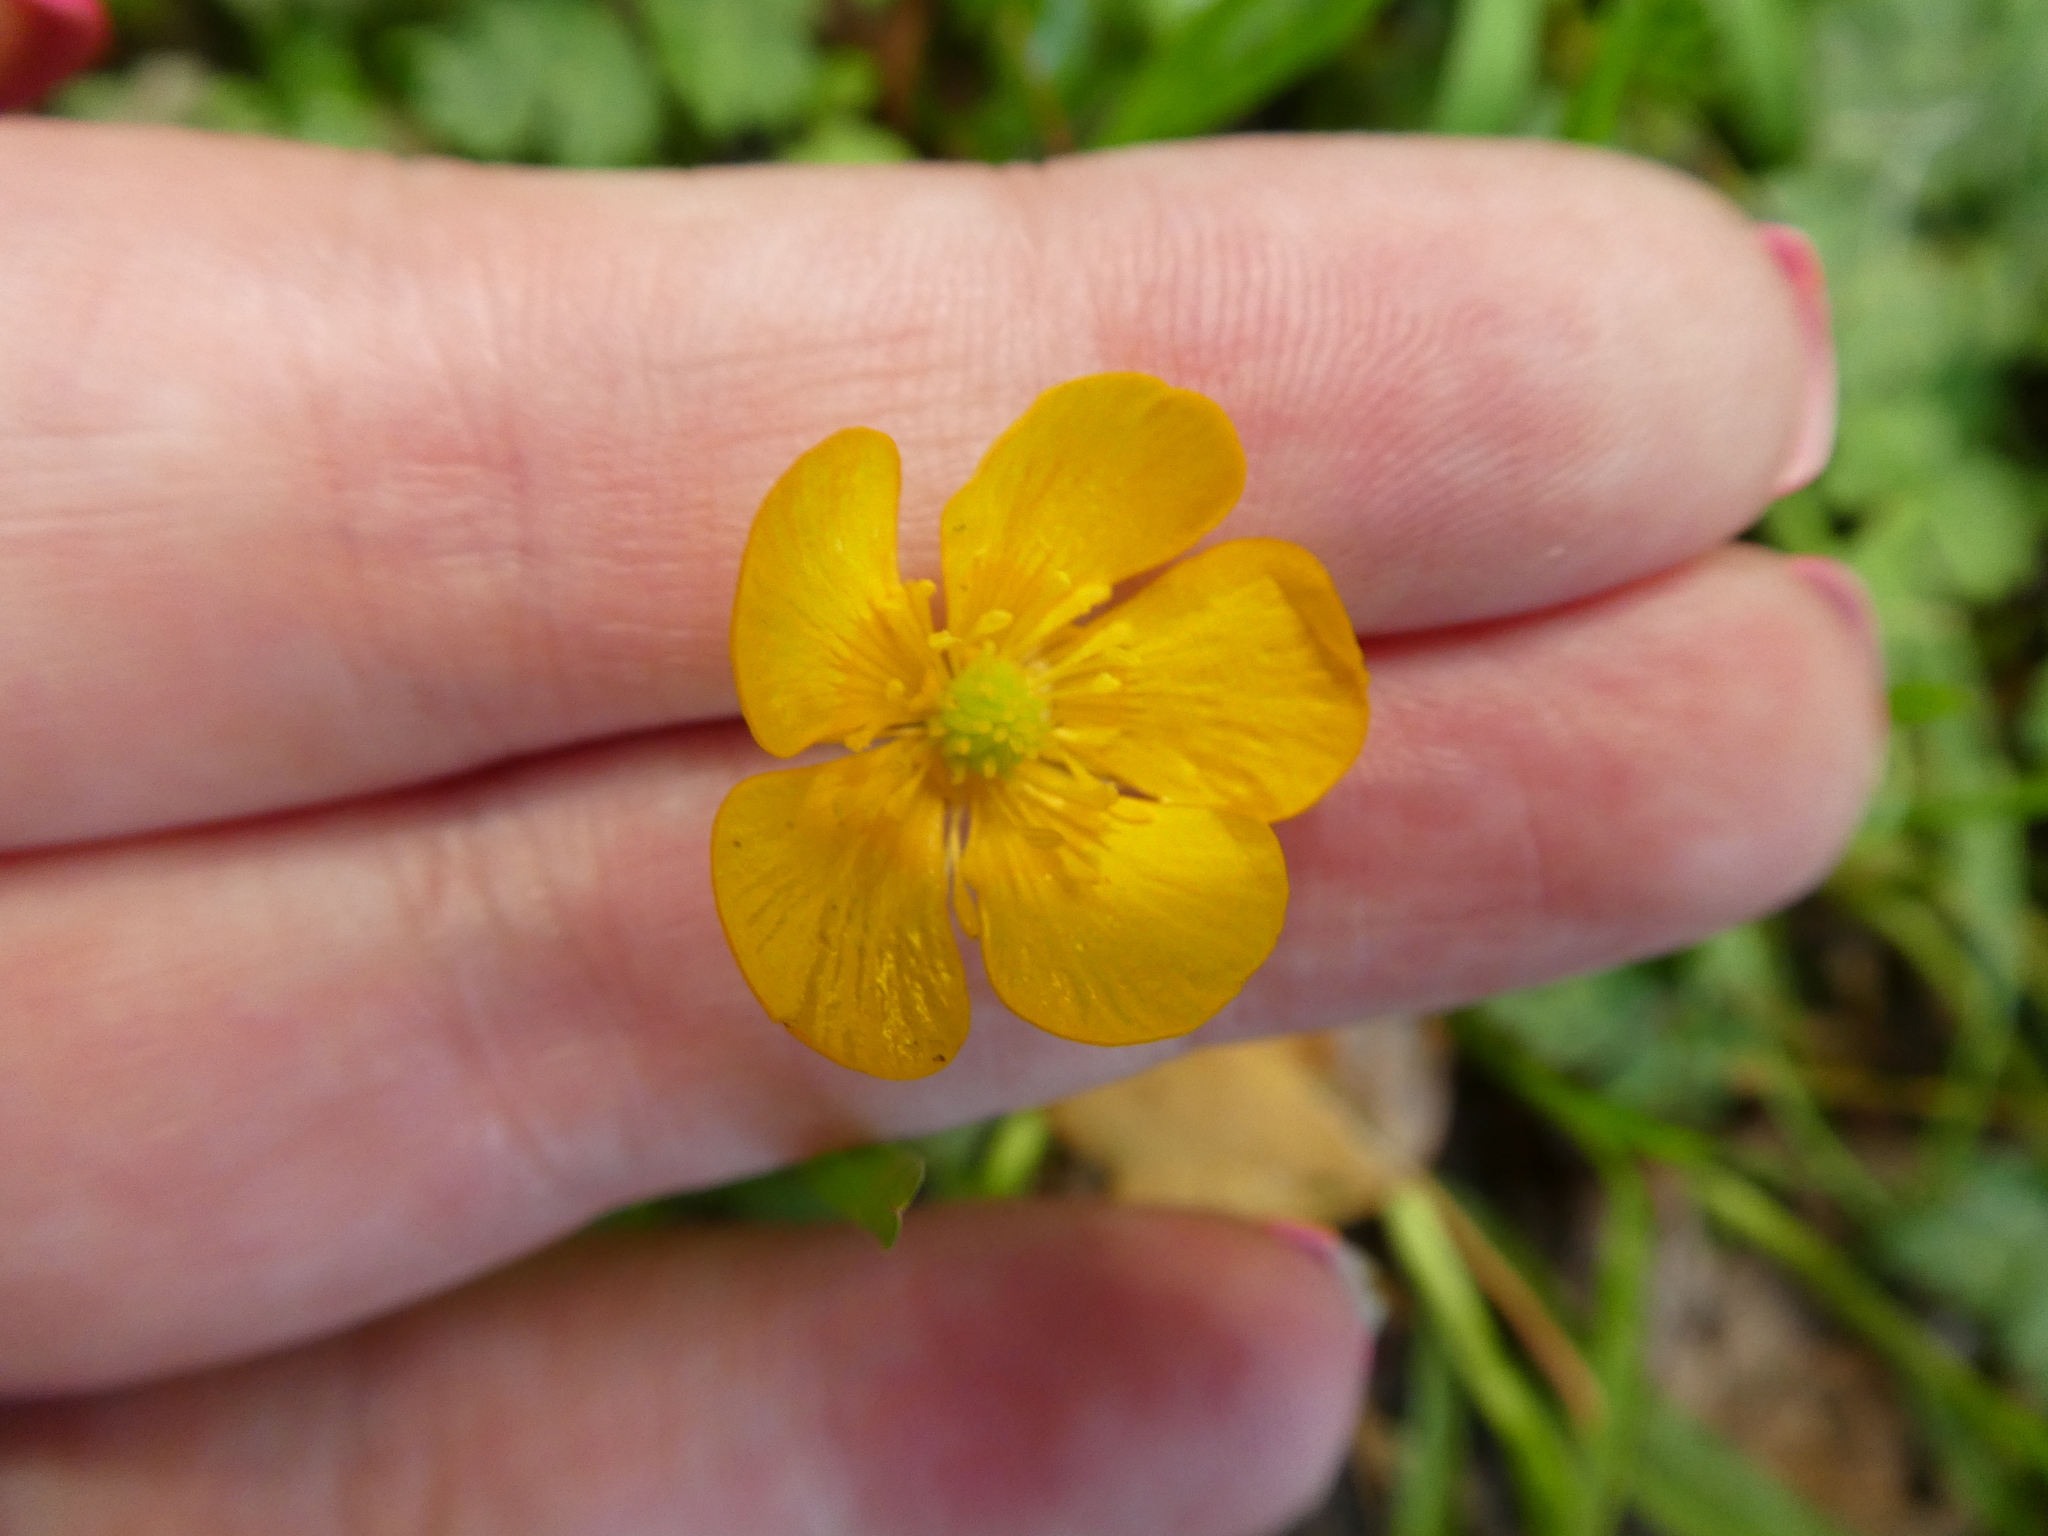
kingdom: Plantae
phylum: Tracheophyta
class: Magnoliopsida
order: Ranunculales
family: Ranunculaceae
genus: Ranunculus
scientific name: Ranunculus repens
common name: Creeping buttercup
